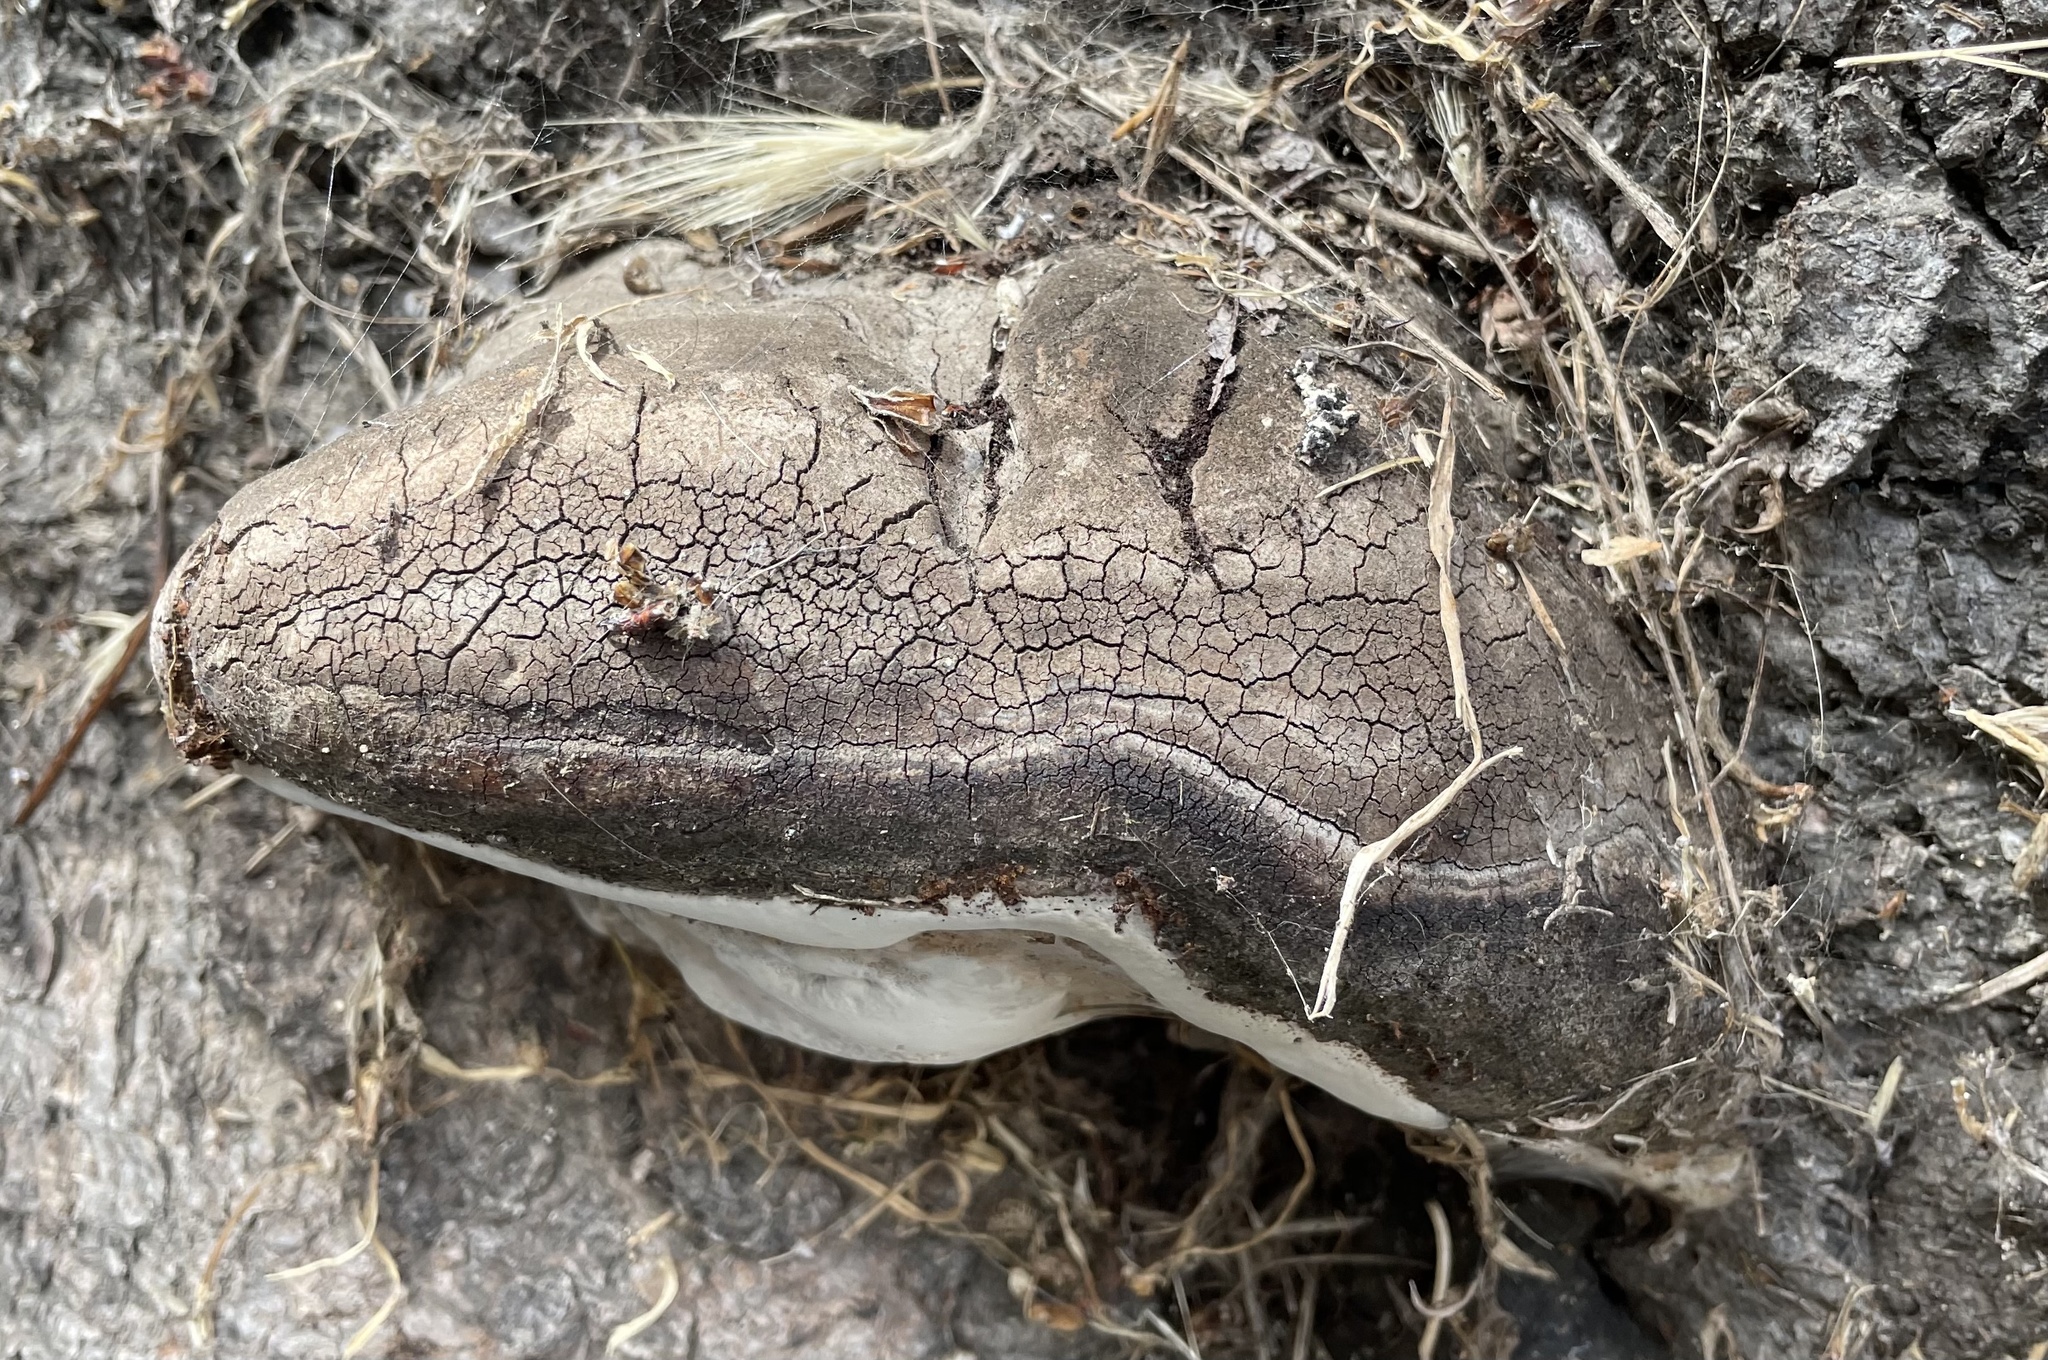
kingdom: Fungi
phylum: Basidiomycota
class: Agaricomycetes
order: Polyporales
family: Polyporaceae
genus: Ganoderma
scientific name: Ganoderma brownii
